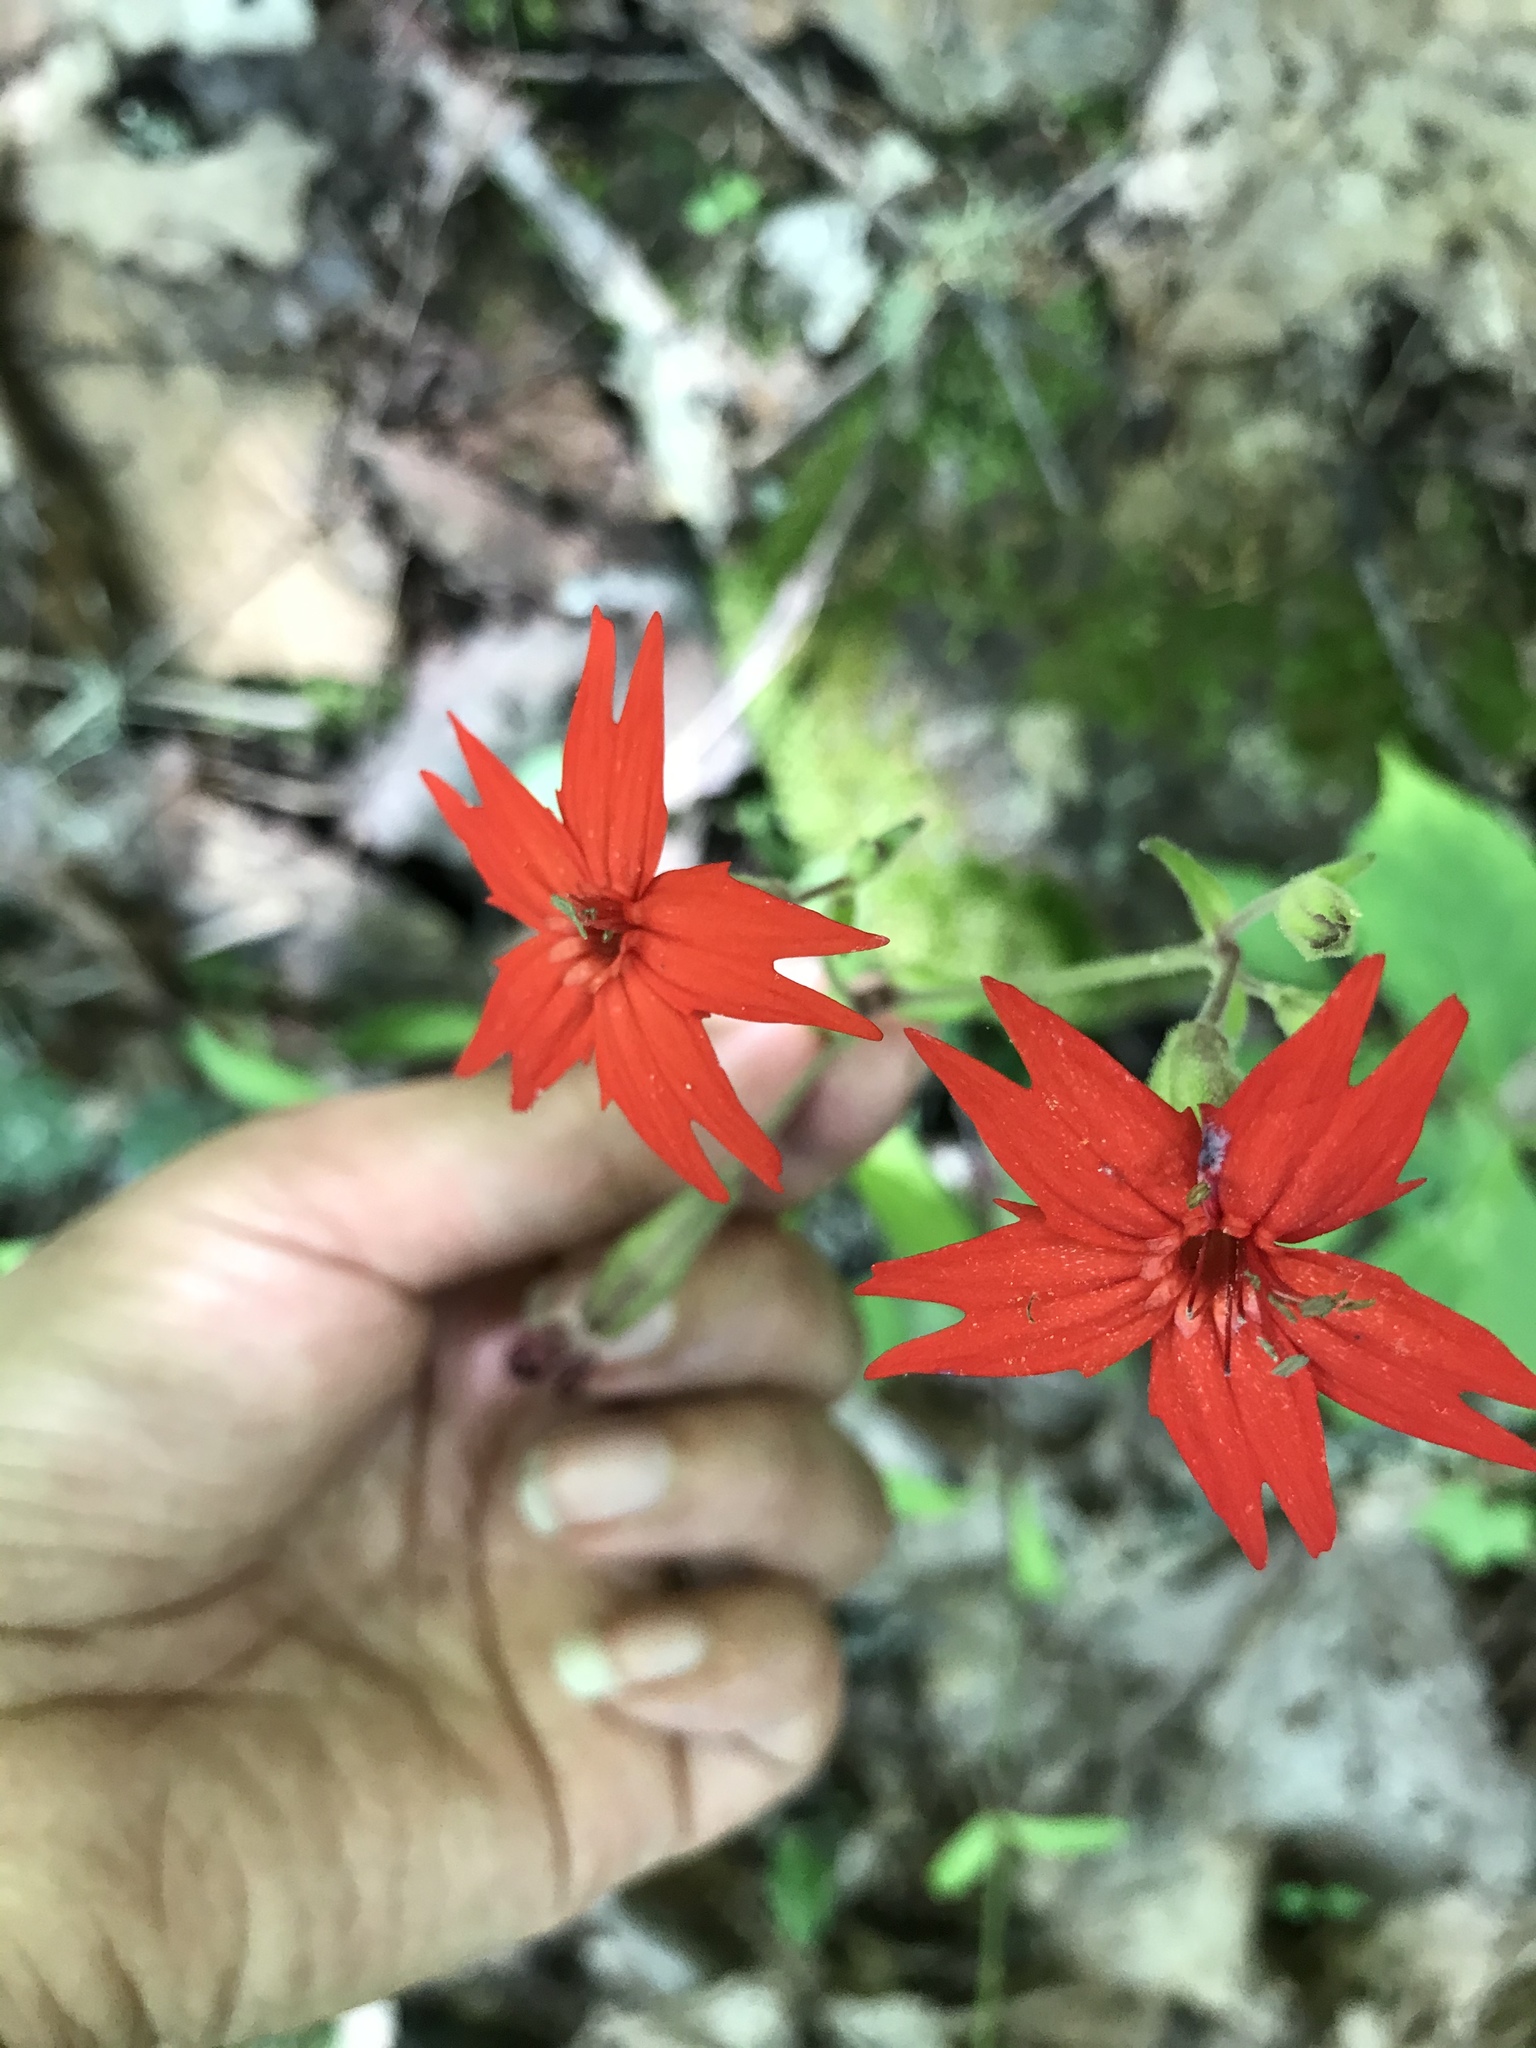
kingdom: Plantae
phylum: Tracheophyta
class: Magnoliopsida
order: Caryophyllales
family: Caryophyllaceae
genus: Silene
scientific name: Silene virginica
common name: Fire-pink
